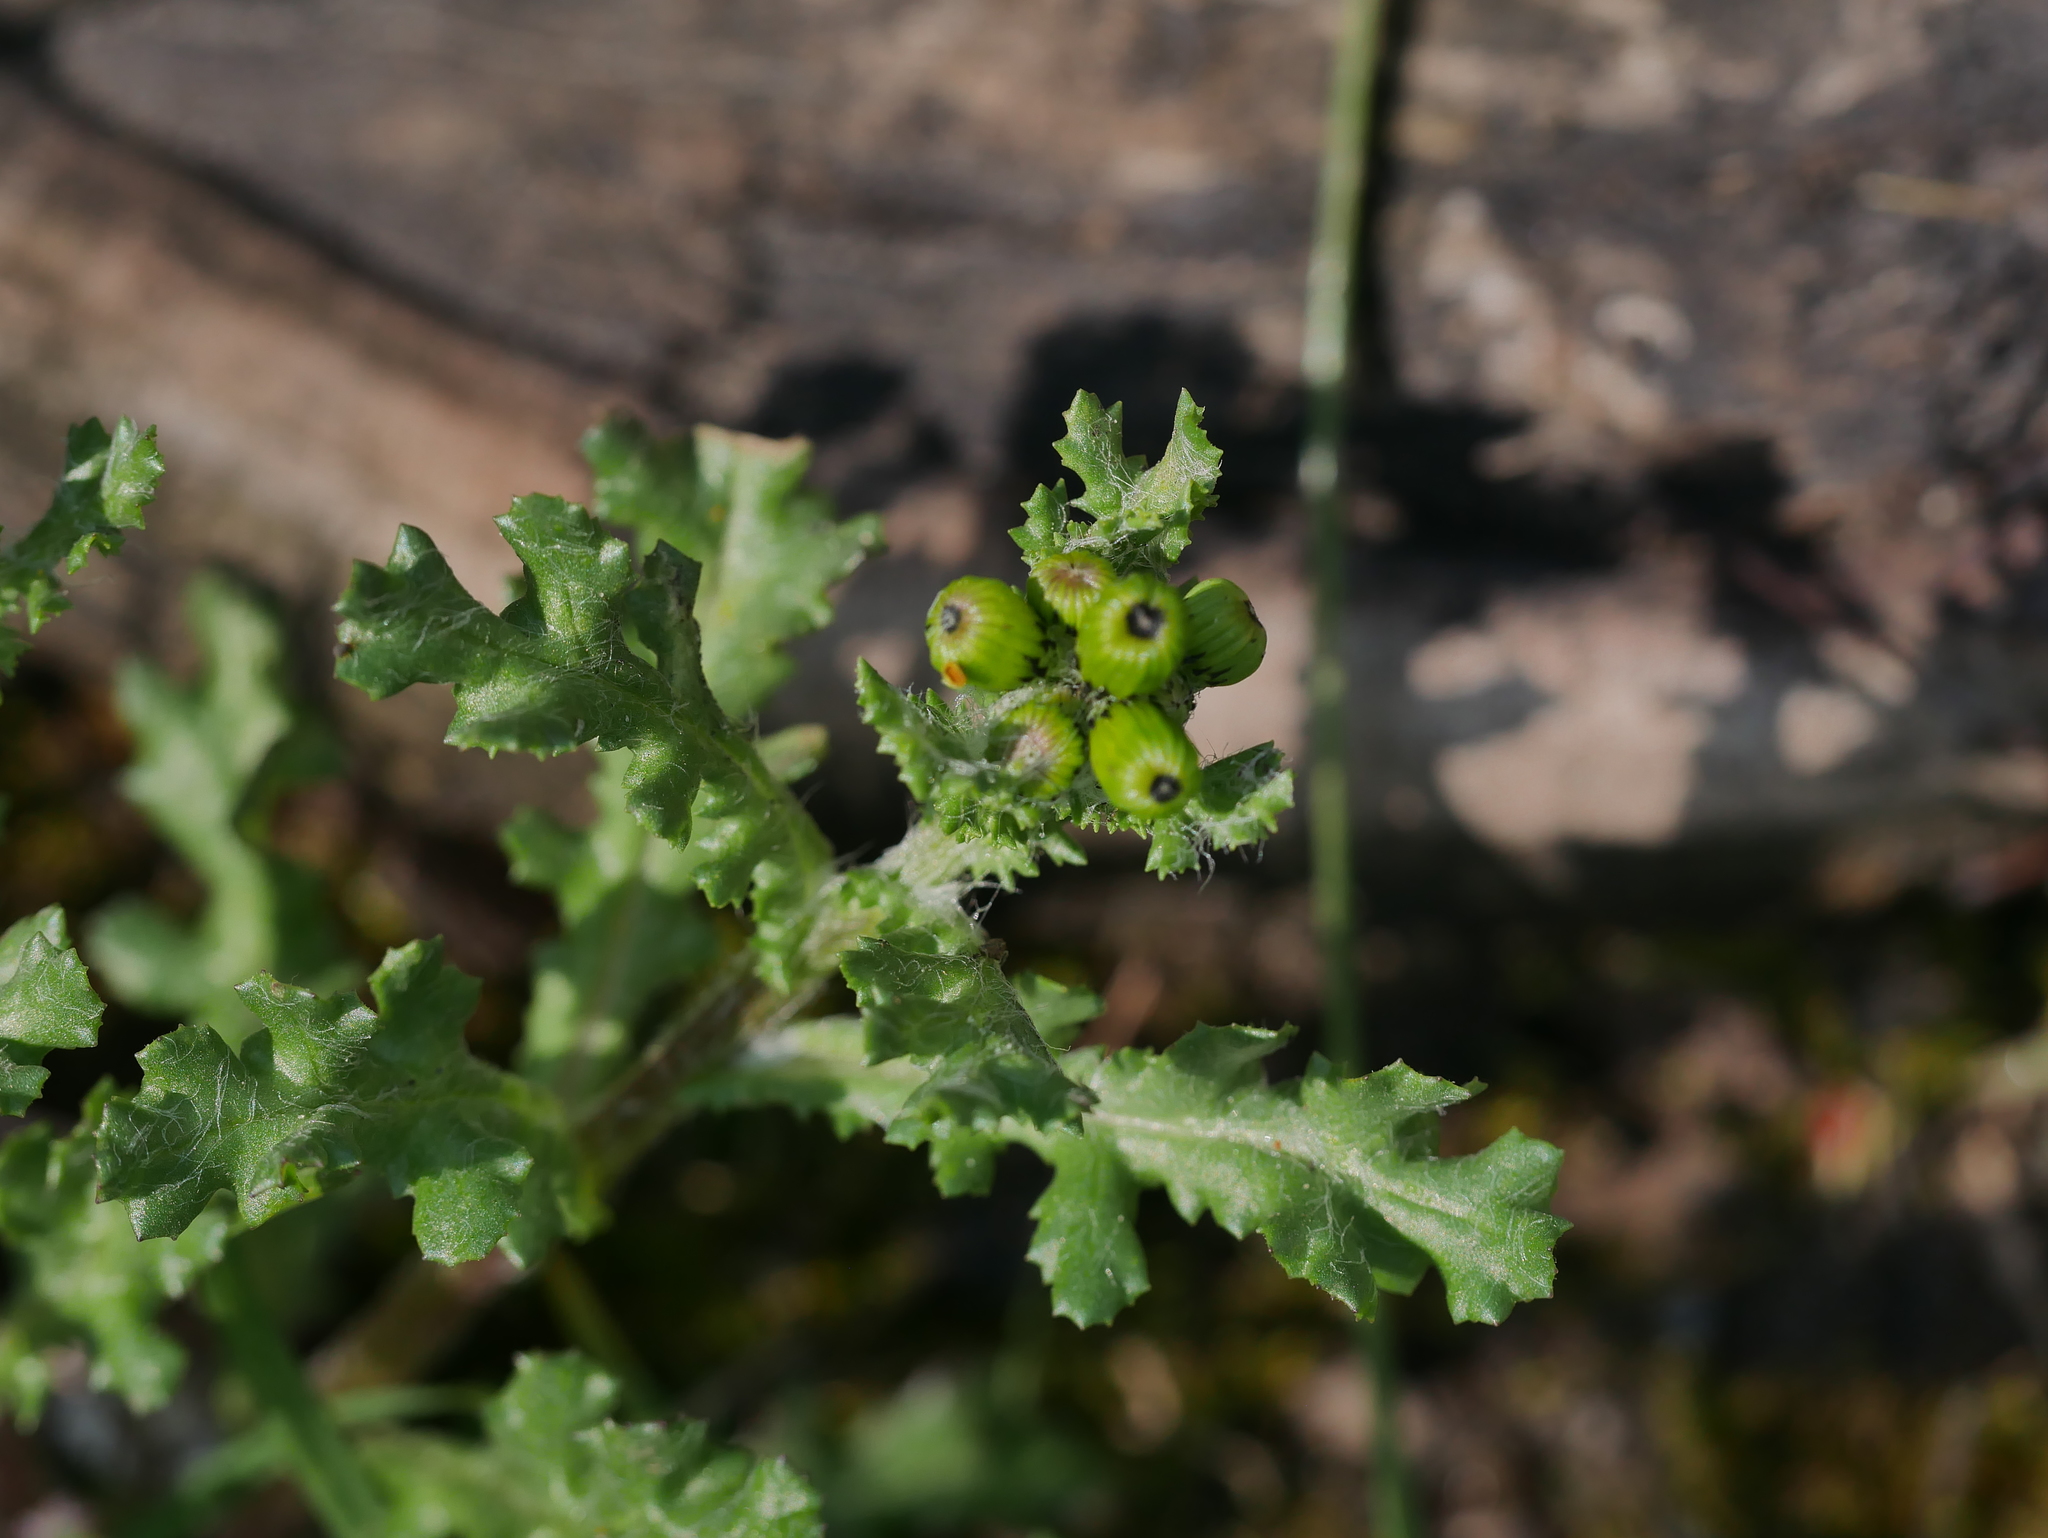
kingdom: Plantae
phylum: Tracheophyta
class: Magnoliopsida
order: Asterales
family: Asteraceae
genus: Senecio
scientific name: Senecio vulgaris
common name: Old-man-in-the-spring
